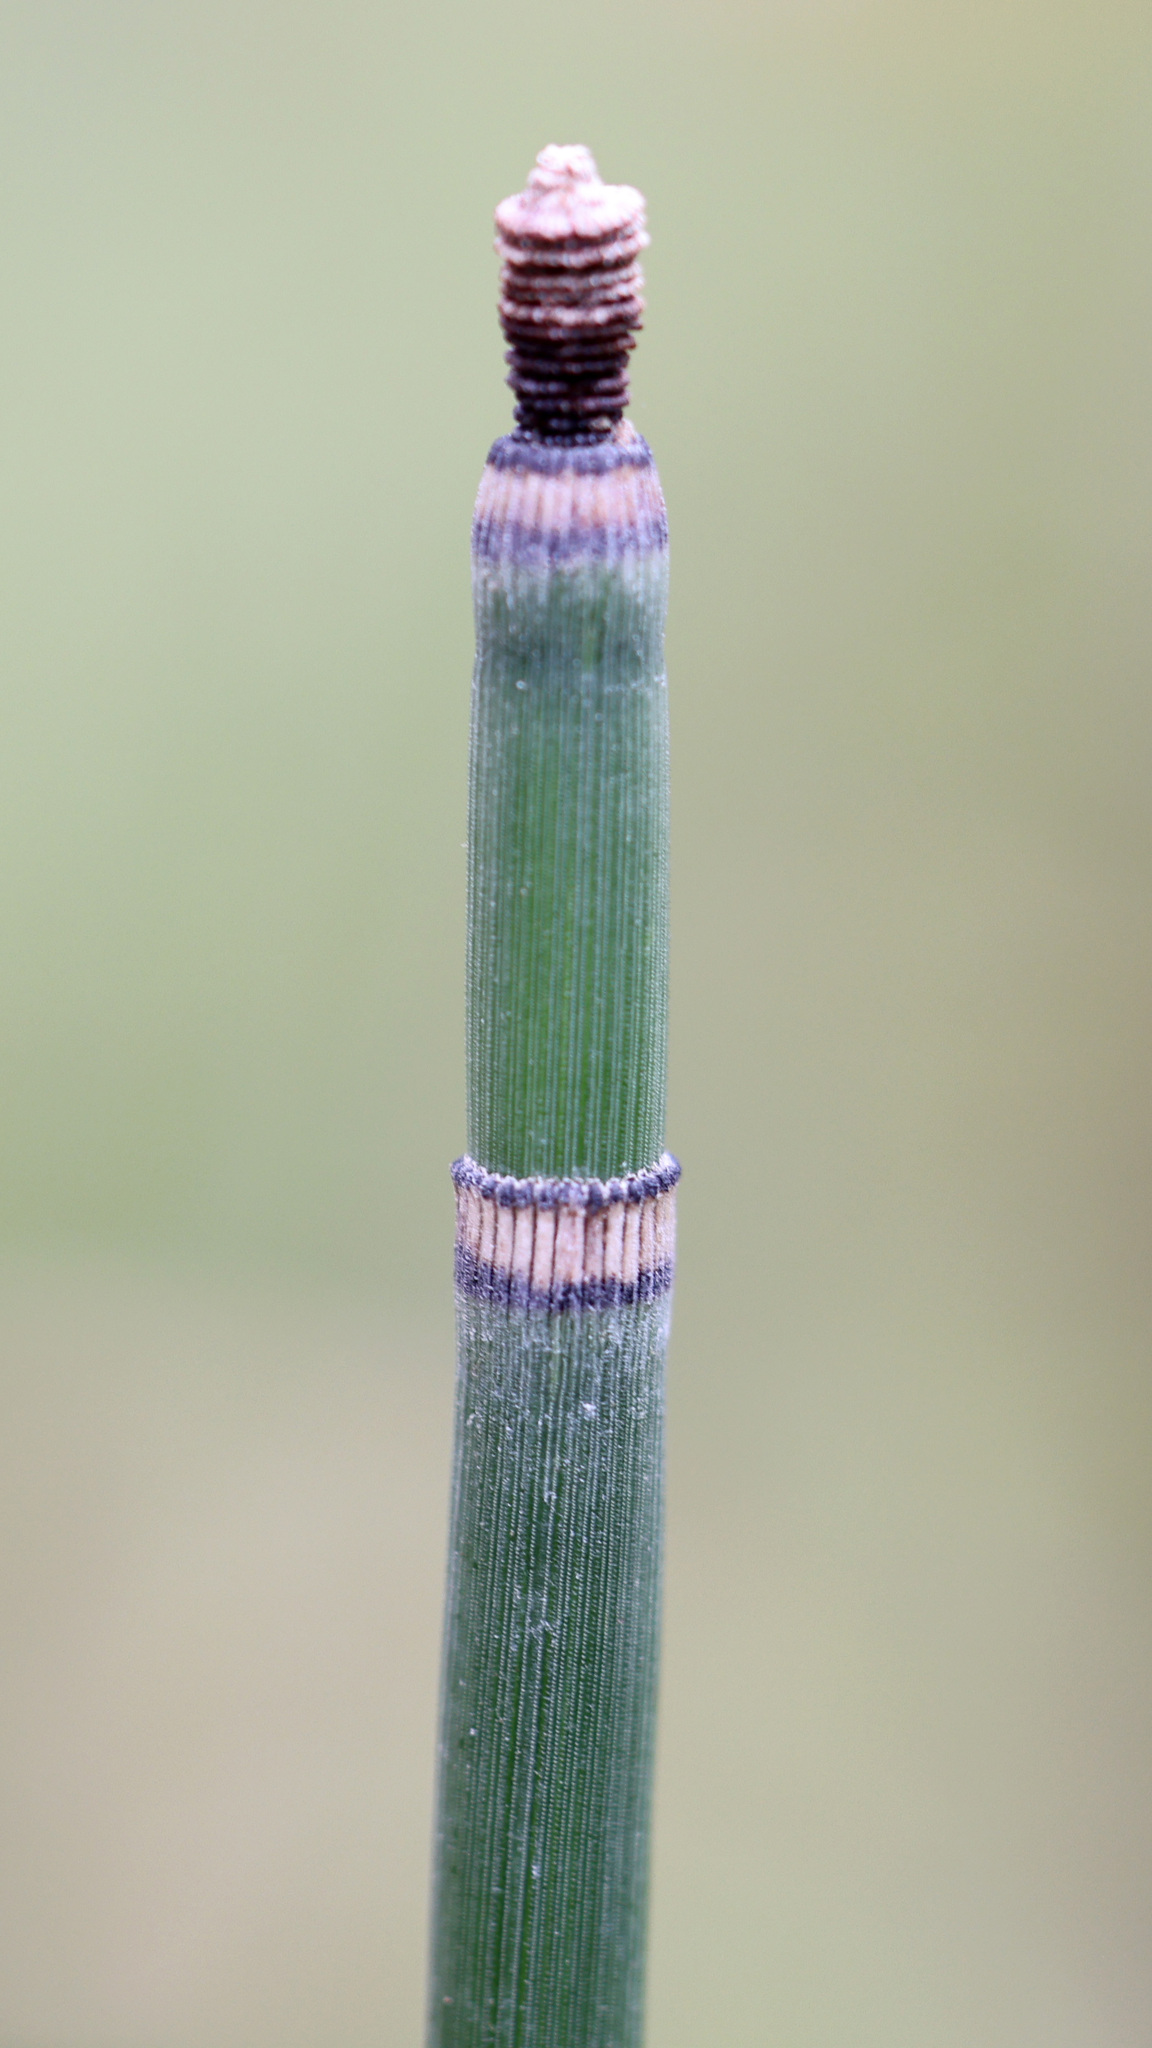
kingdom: Plantae
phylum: Tracheophyta
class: Polypodiopsida
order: Equisetales
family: Equisetaceae
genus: Equisetum
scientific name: Equisetum hyemale
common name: Rough horsetail
